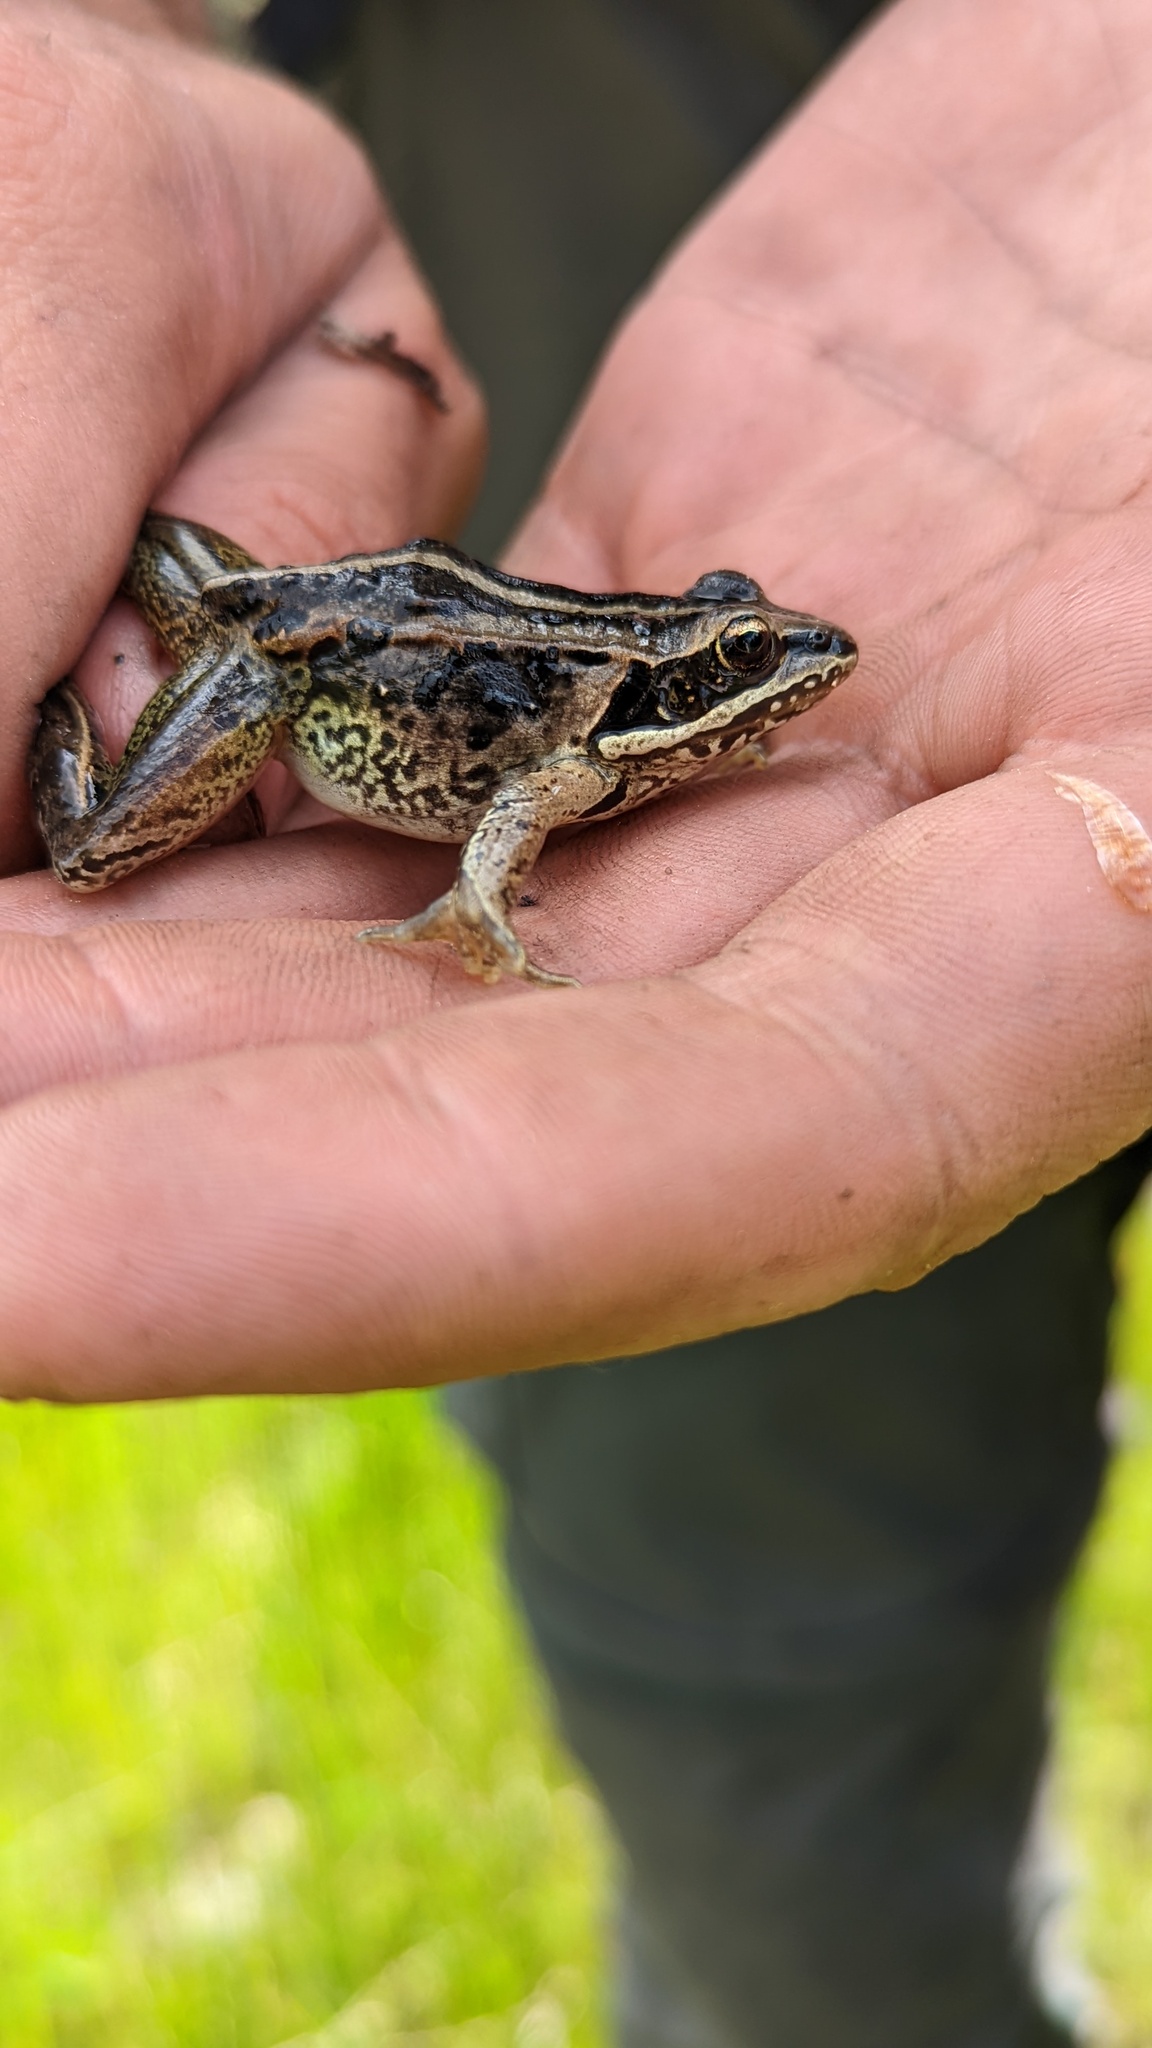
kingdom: Animalia
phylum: Chordata
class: Amphibia
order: Anura
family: Ranidae
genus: Lithobates
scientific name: Lithobates sylvaticus
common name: Wood frog
